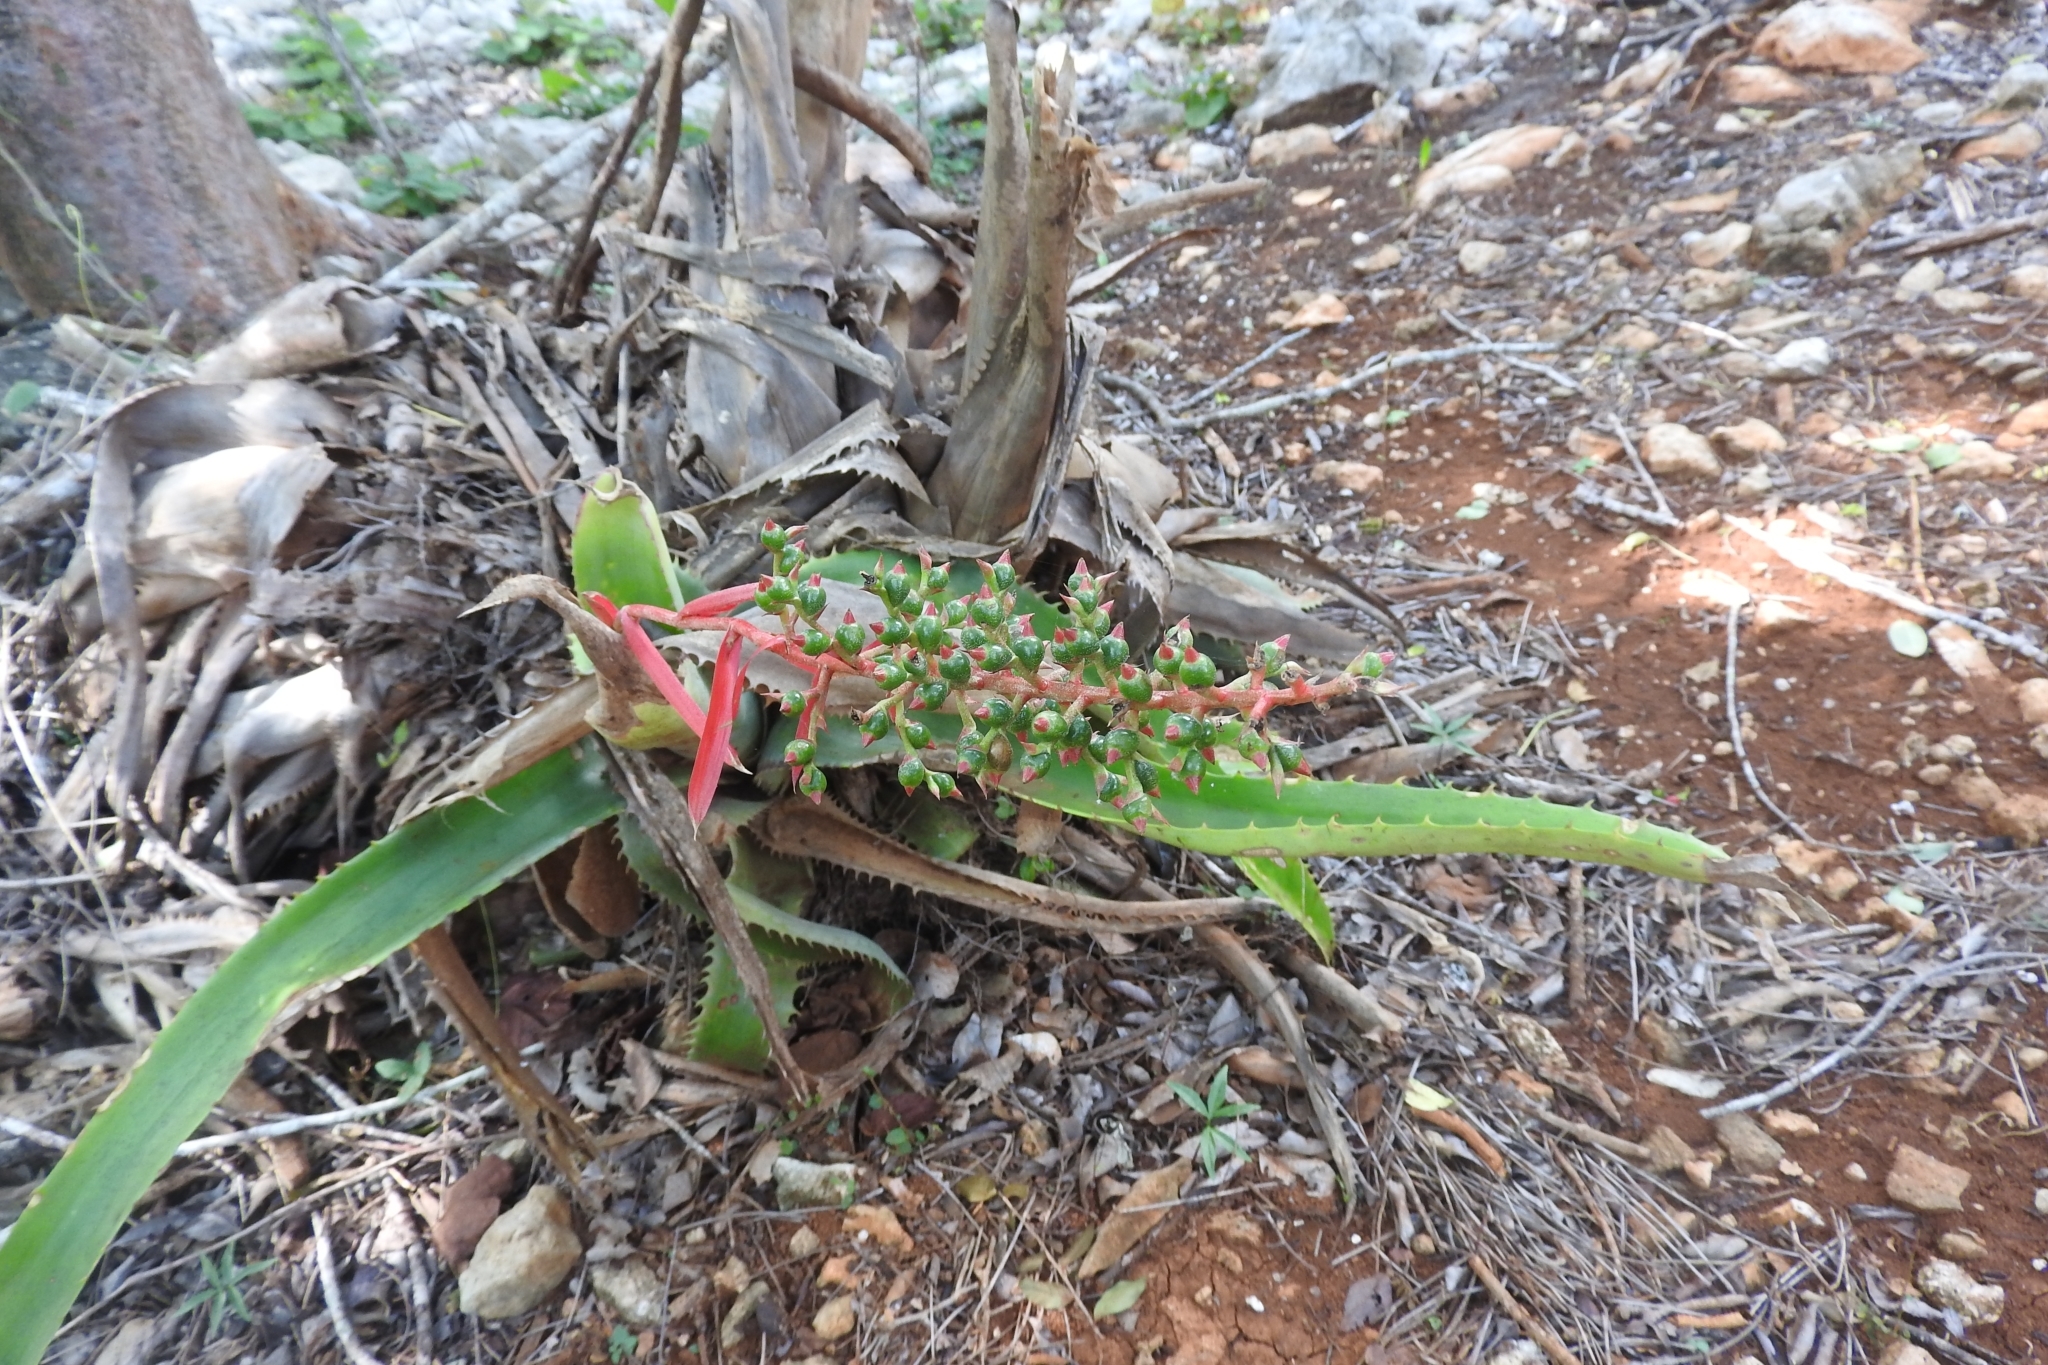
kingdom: Plantae
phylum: Tracheophyta
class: Liliopsida
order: Poales
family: Bromeliaceae
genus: Aechmea
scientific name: Aechmea bracteata
